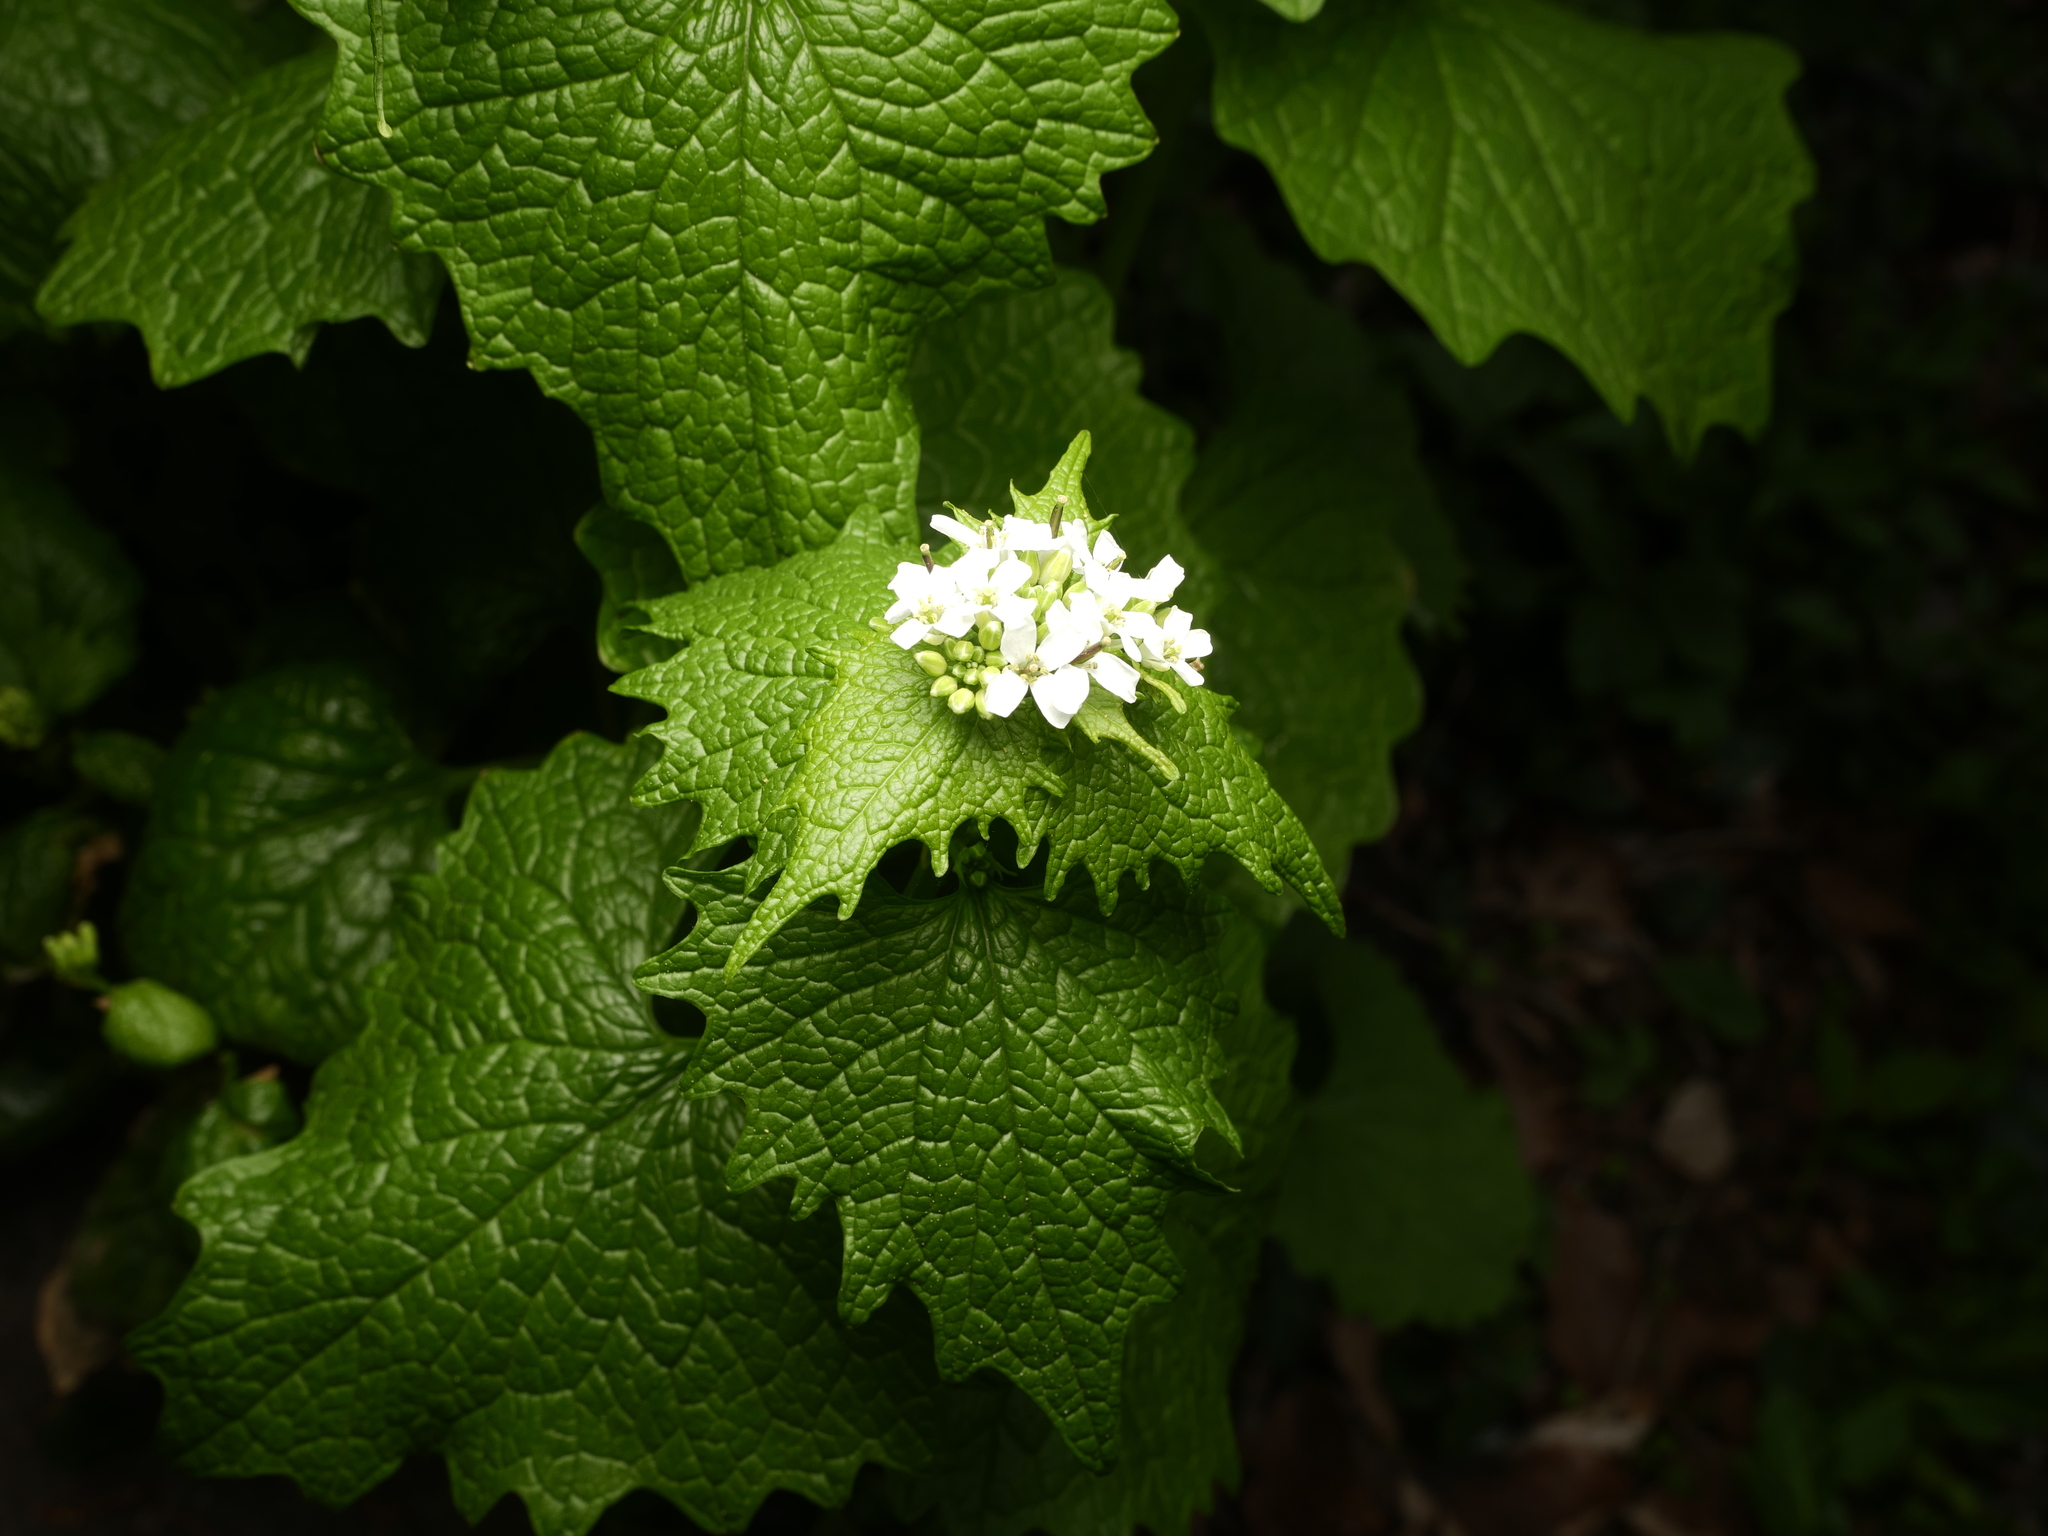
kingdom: Plantae
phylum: Tracheophyta
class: Magnoliopsida
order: Brassicales
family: Brassicaceae
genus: Alliaria
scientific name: Alliaria petiolata
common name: Garlic mustard
